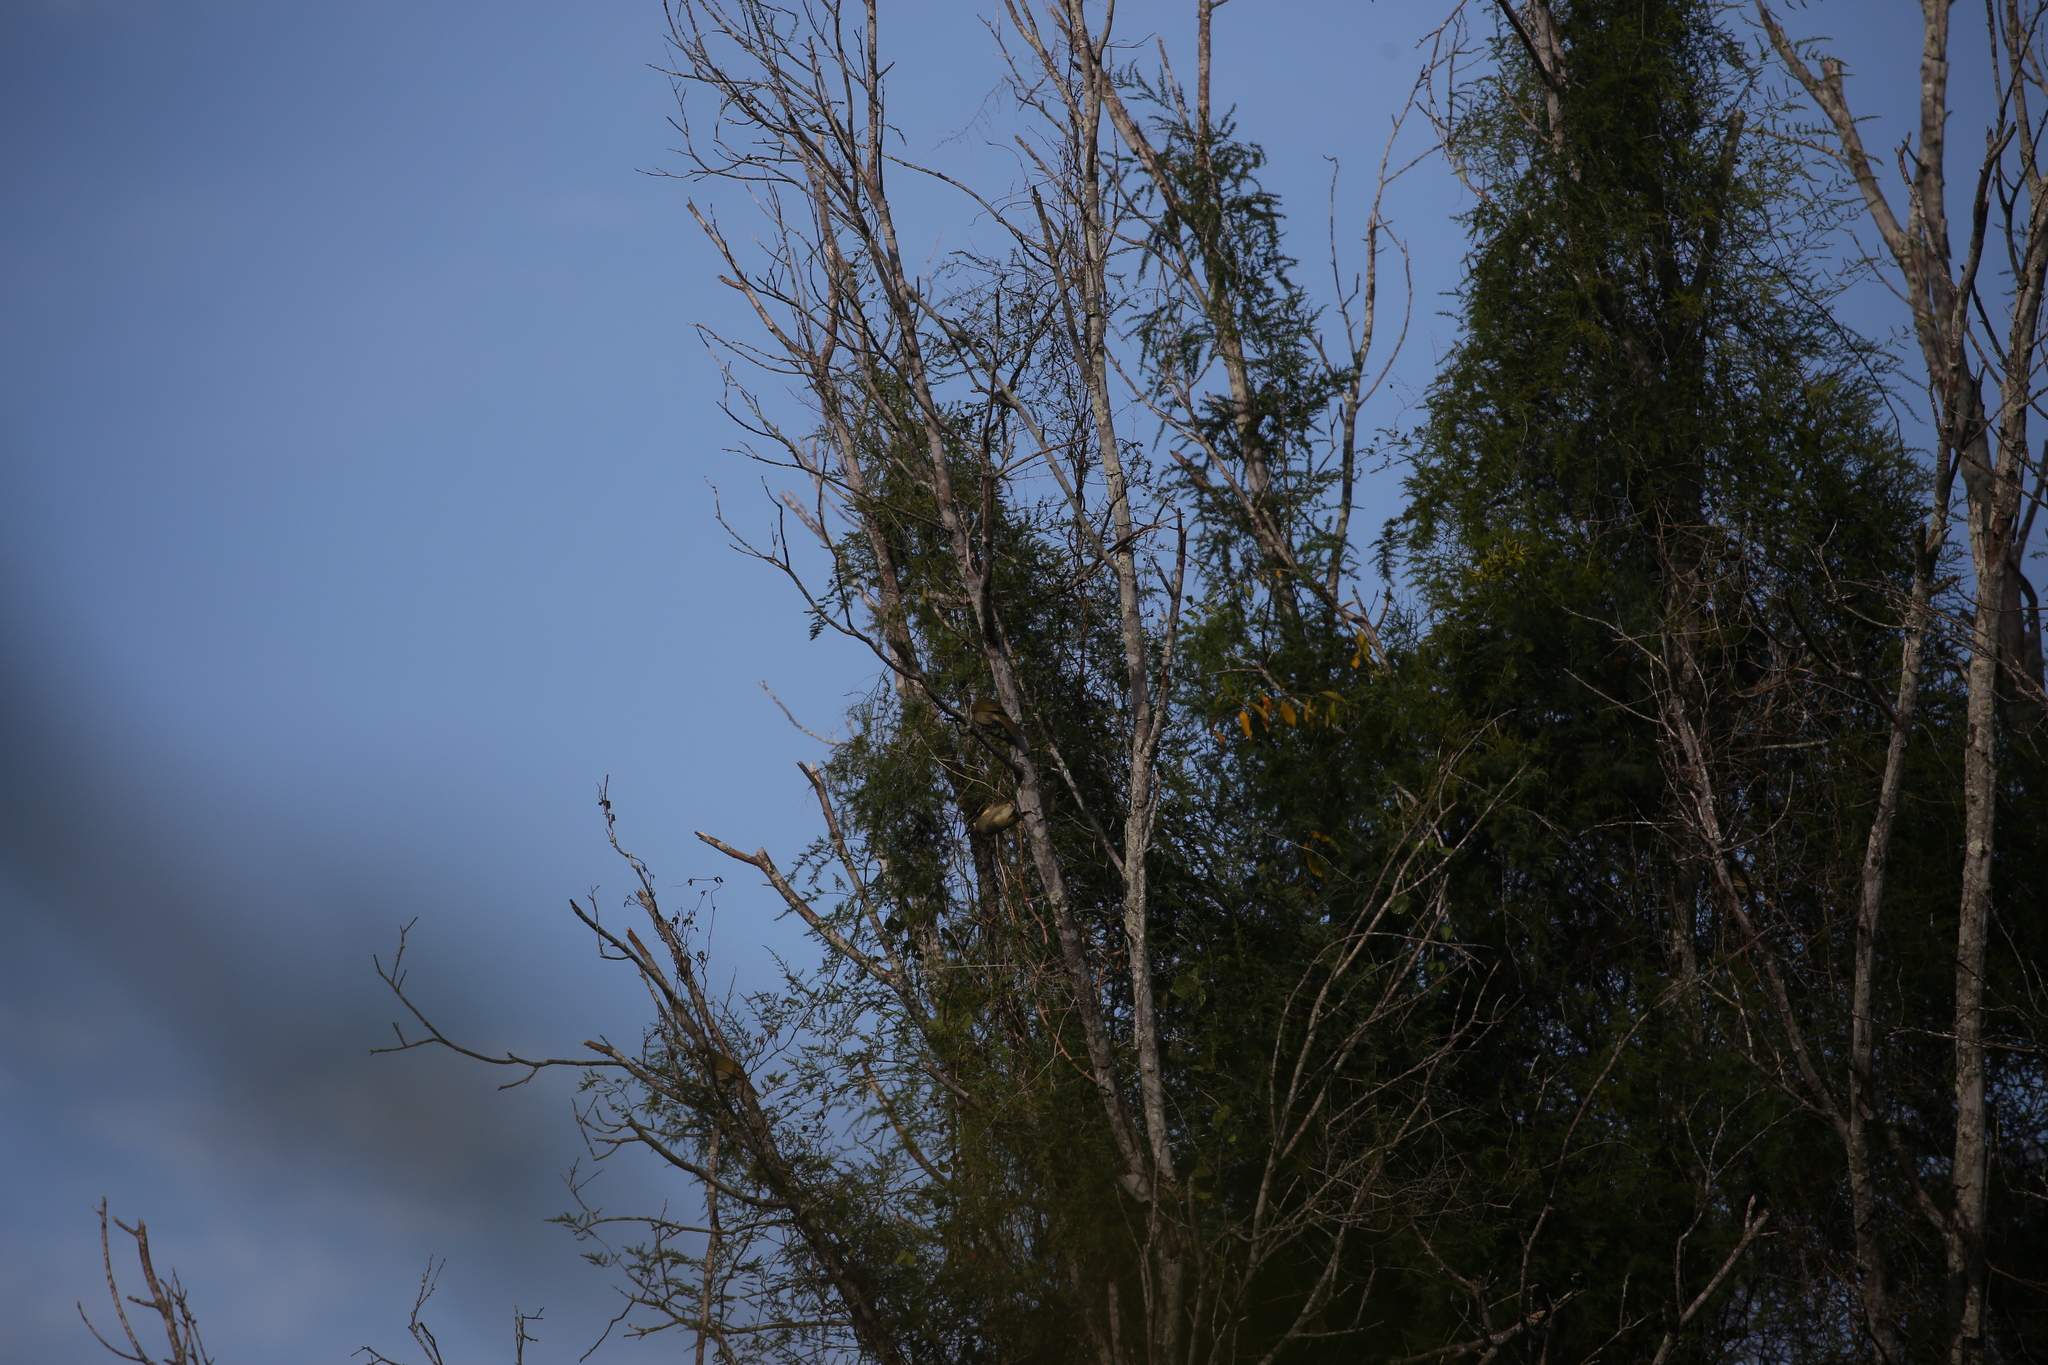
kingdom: Animalia
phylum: Chordata
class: Aves
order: Passeriformes
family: Meliphagidae
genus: Meliphaga
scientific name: Meliphaga lewinii
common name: Lewin's honeyeater
